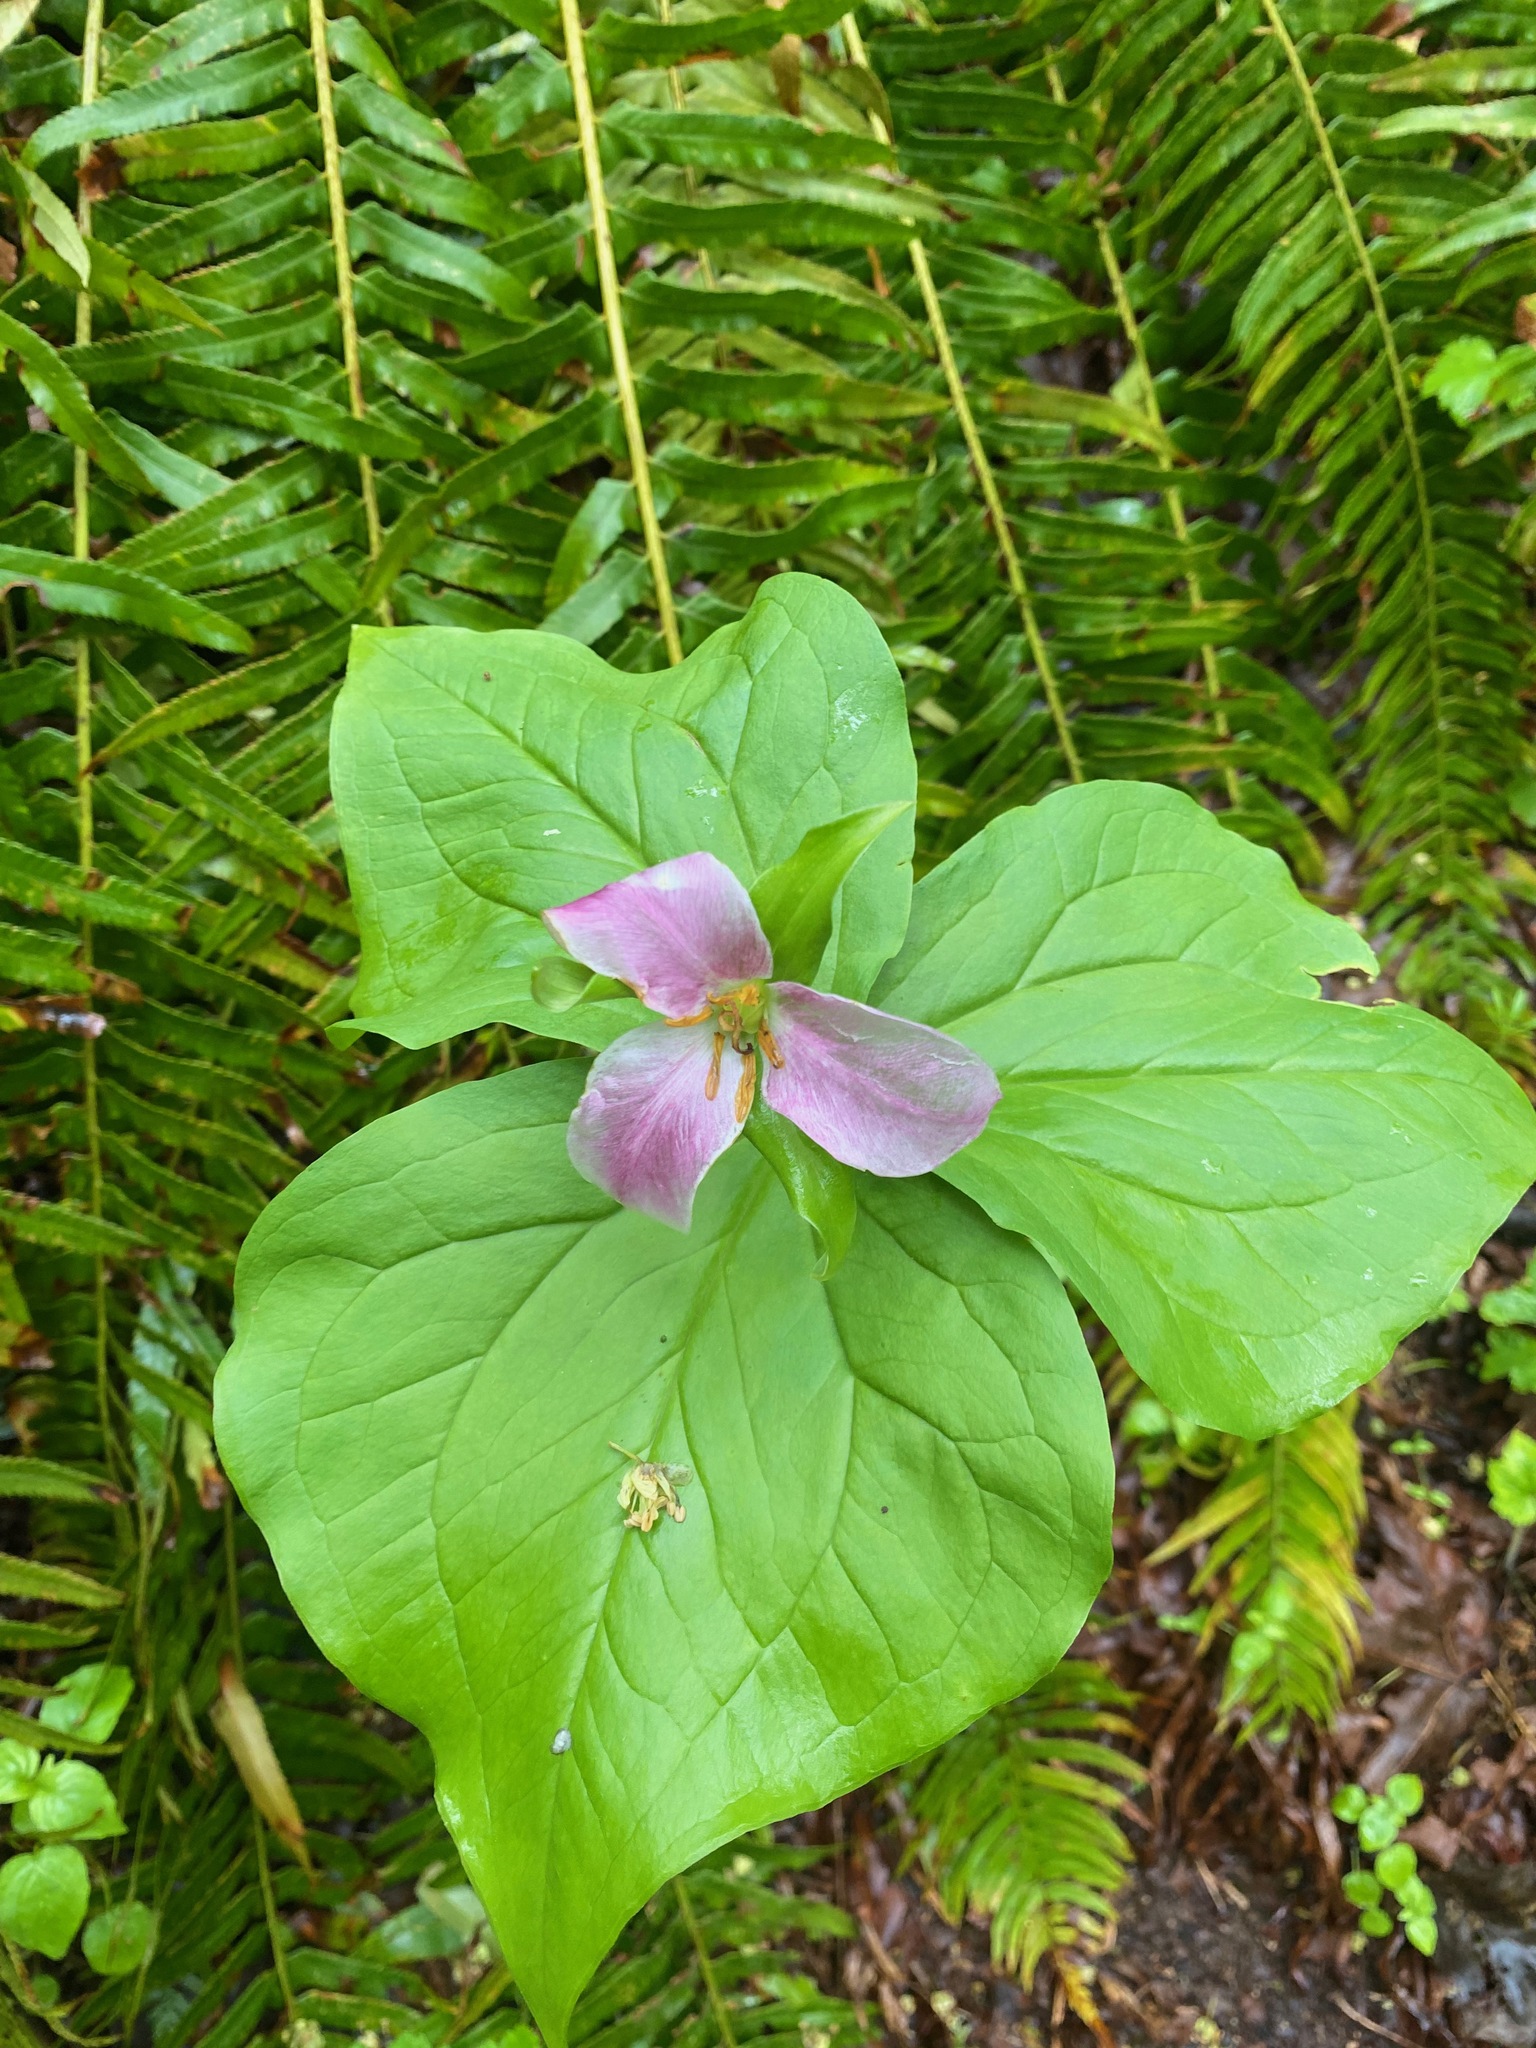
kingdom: Plantae
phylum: Tracheophyta
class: Liliopsida
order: Liliales
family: Melanthiaceae
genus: Trillium
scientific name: Trillium ovatum
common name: Pacific trillium
